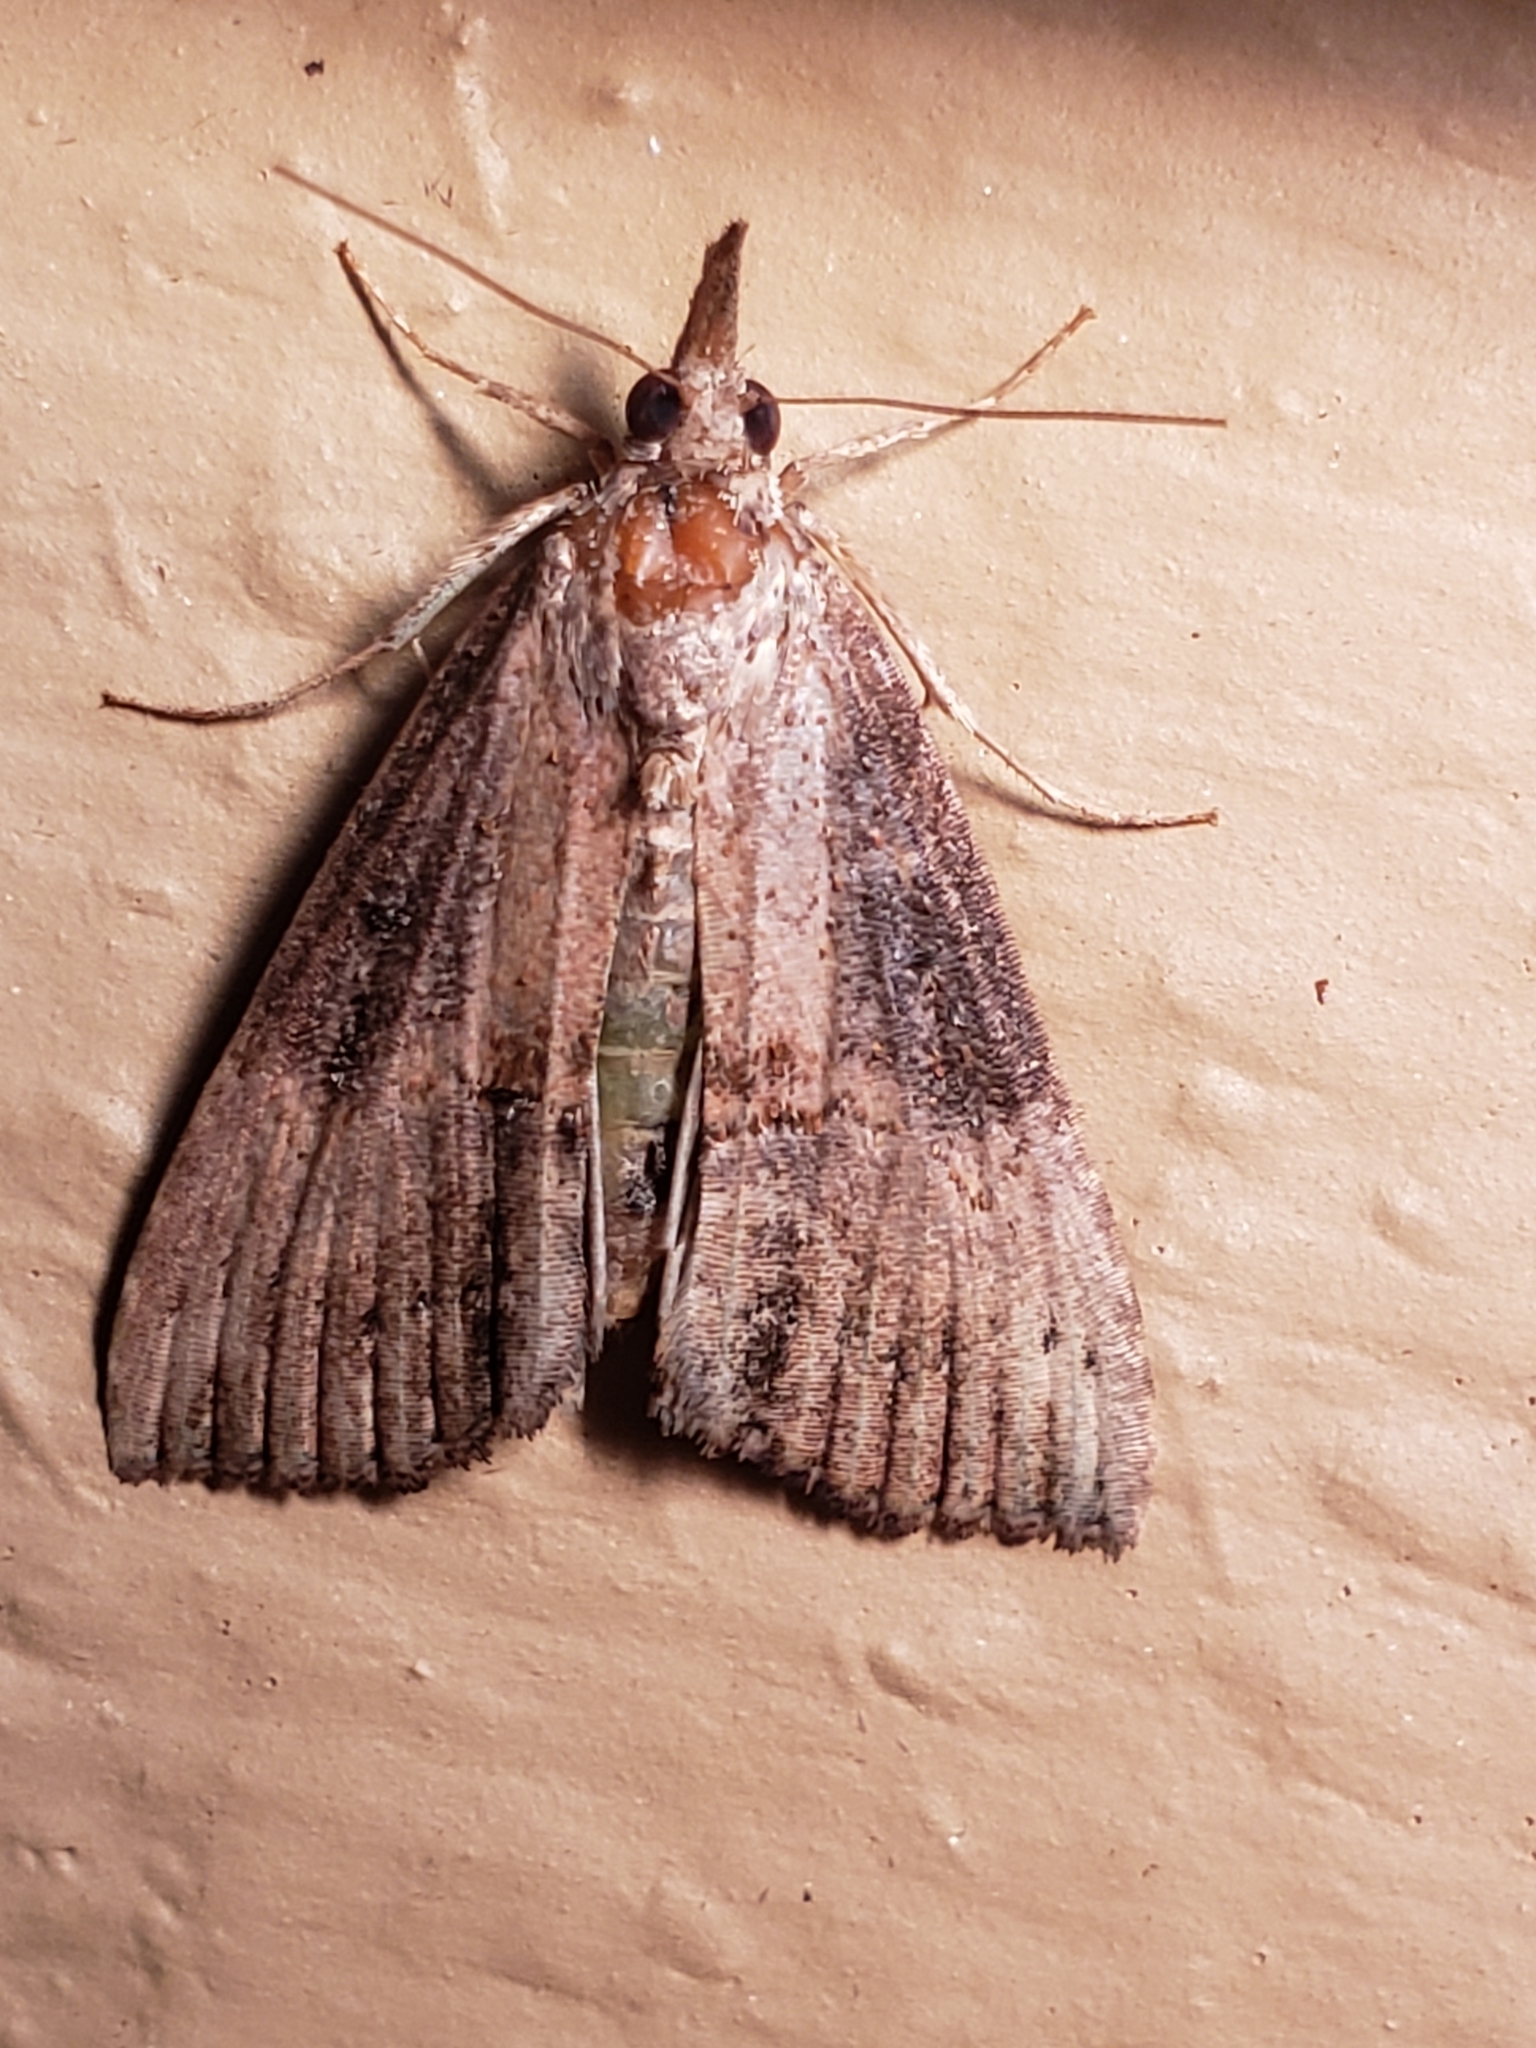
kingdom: Animalia
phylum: Arthropoda
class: Insecta
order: Lepidoptera
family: Erebidae
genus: Hypena
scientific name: Hypena scabra
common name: Green cloverworm
